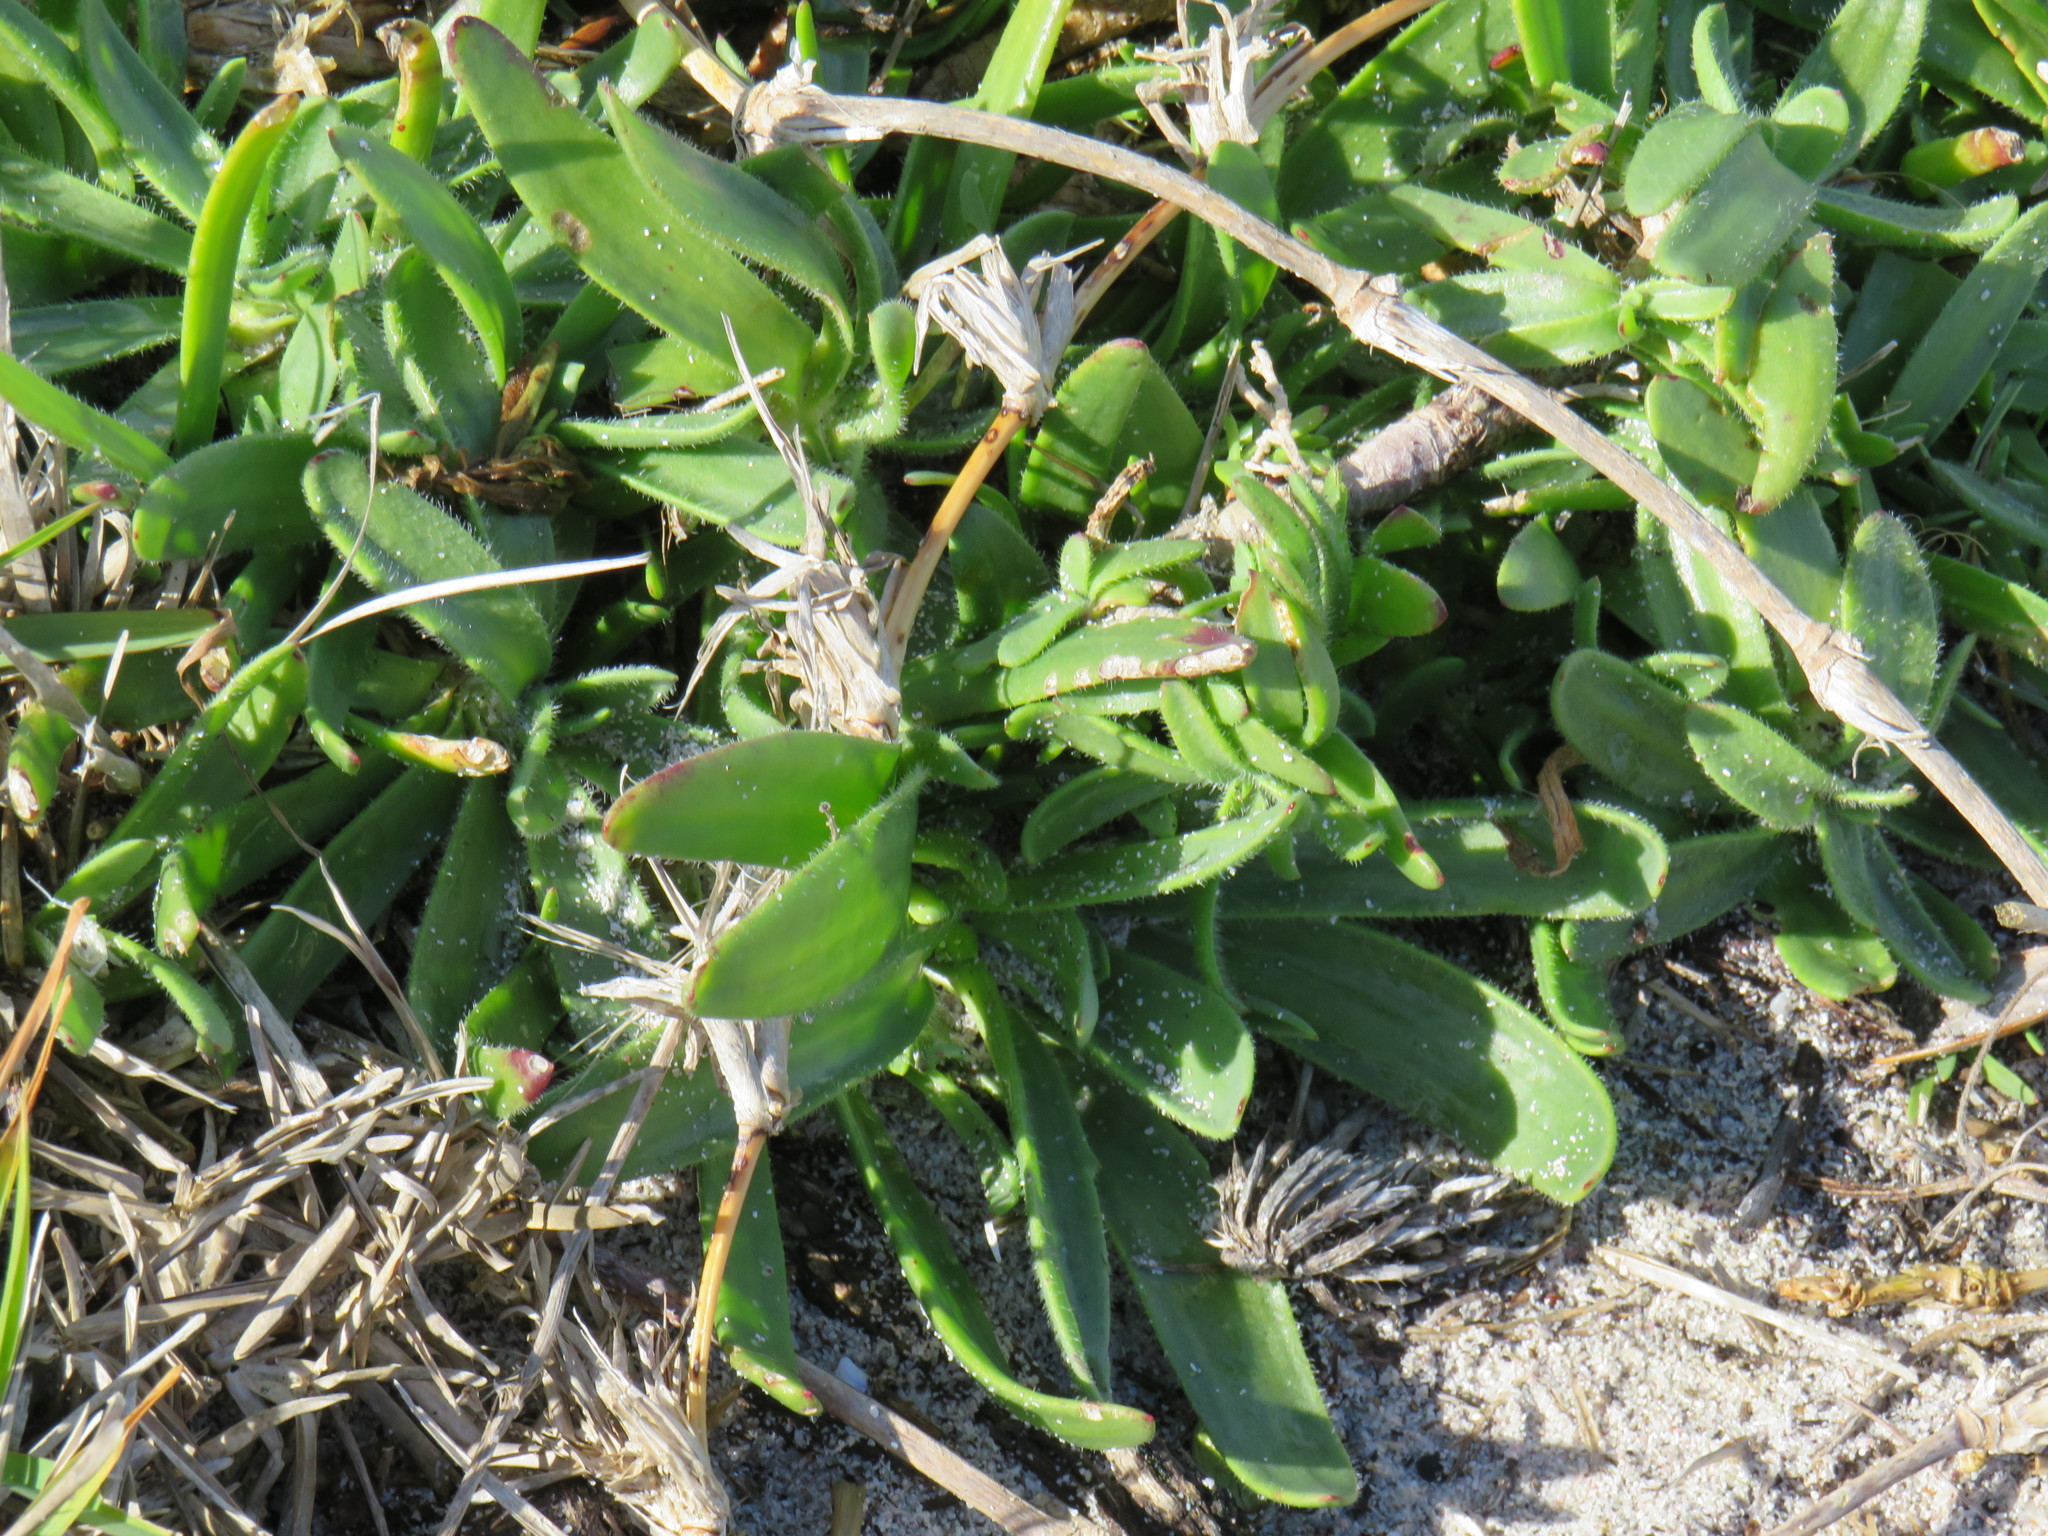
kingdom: Plantae
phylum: Tracheophyta
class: Magnoliopsida
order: Lamiales
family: Plantaginaceae
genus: Plantago
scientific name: Plantago carnosa
